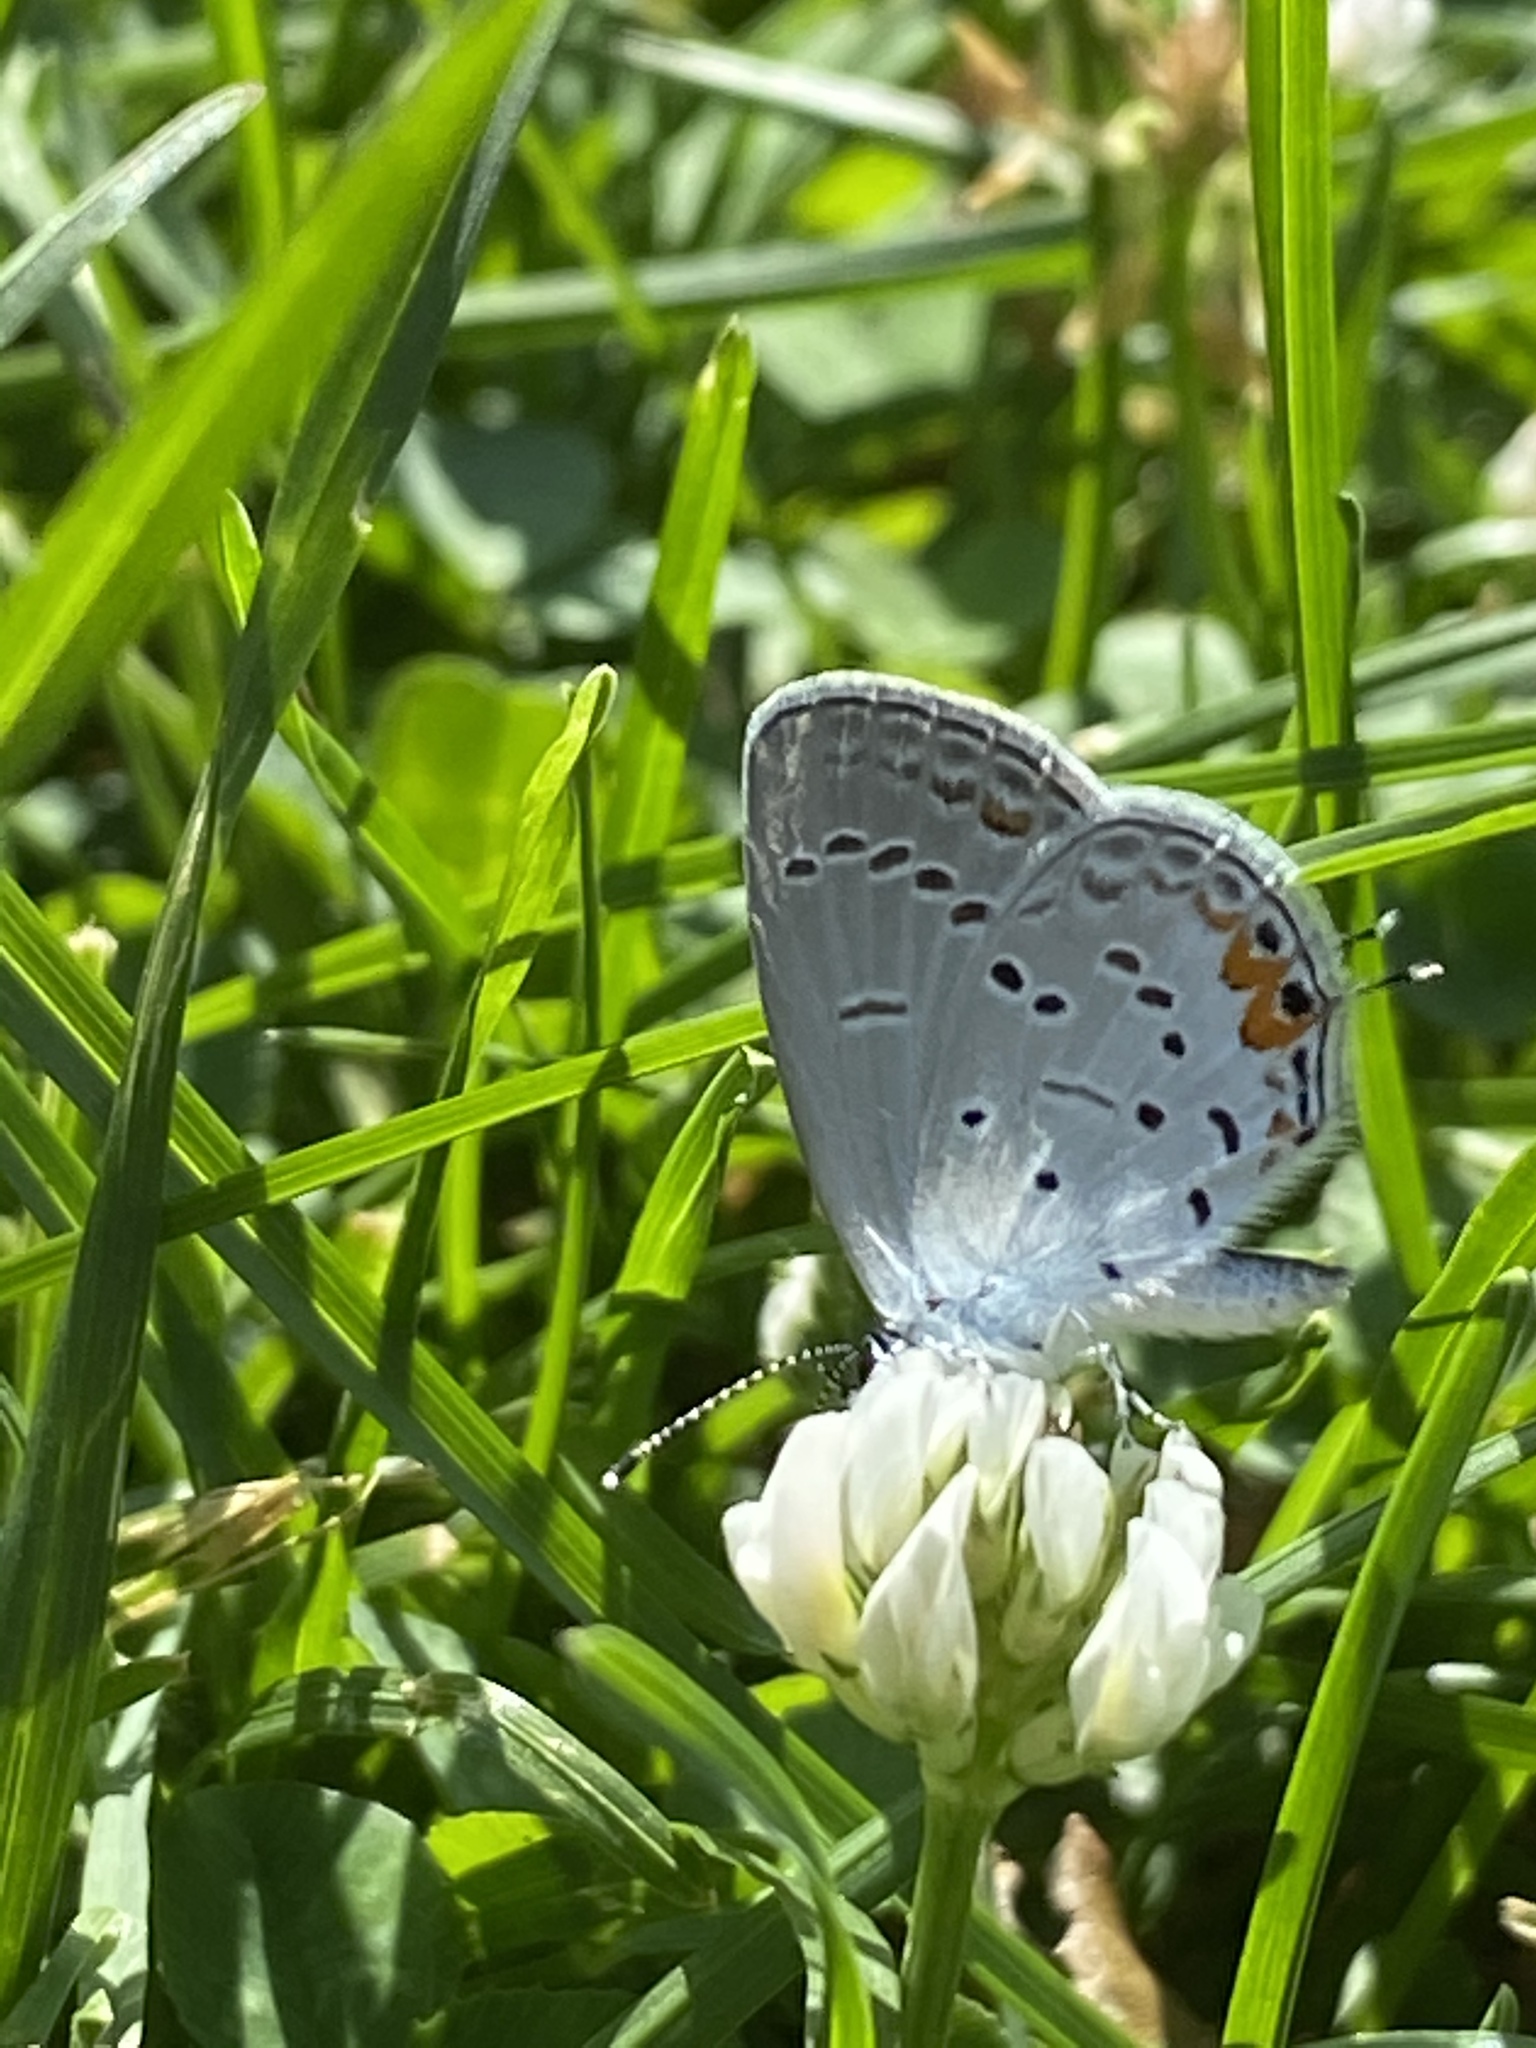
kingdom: Animalia
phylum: Arthropoda
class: Insecta
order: Lepidoptera
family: Lycaenidae
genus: Elkalyce
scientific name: Elkalyce comyntas
